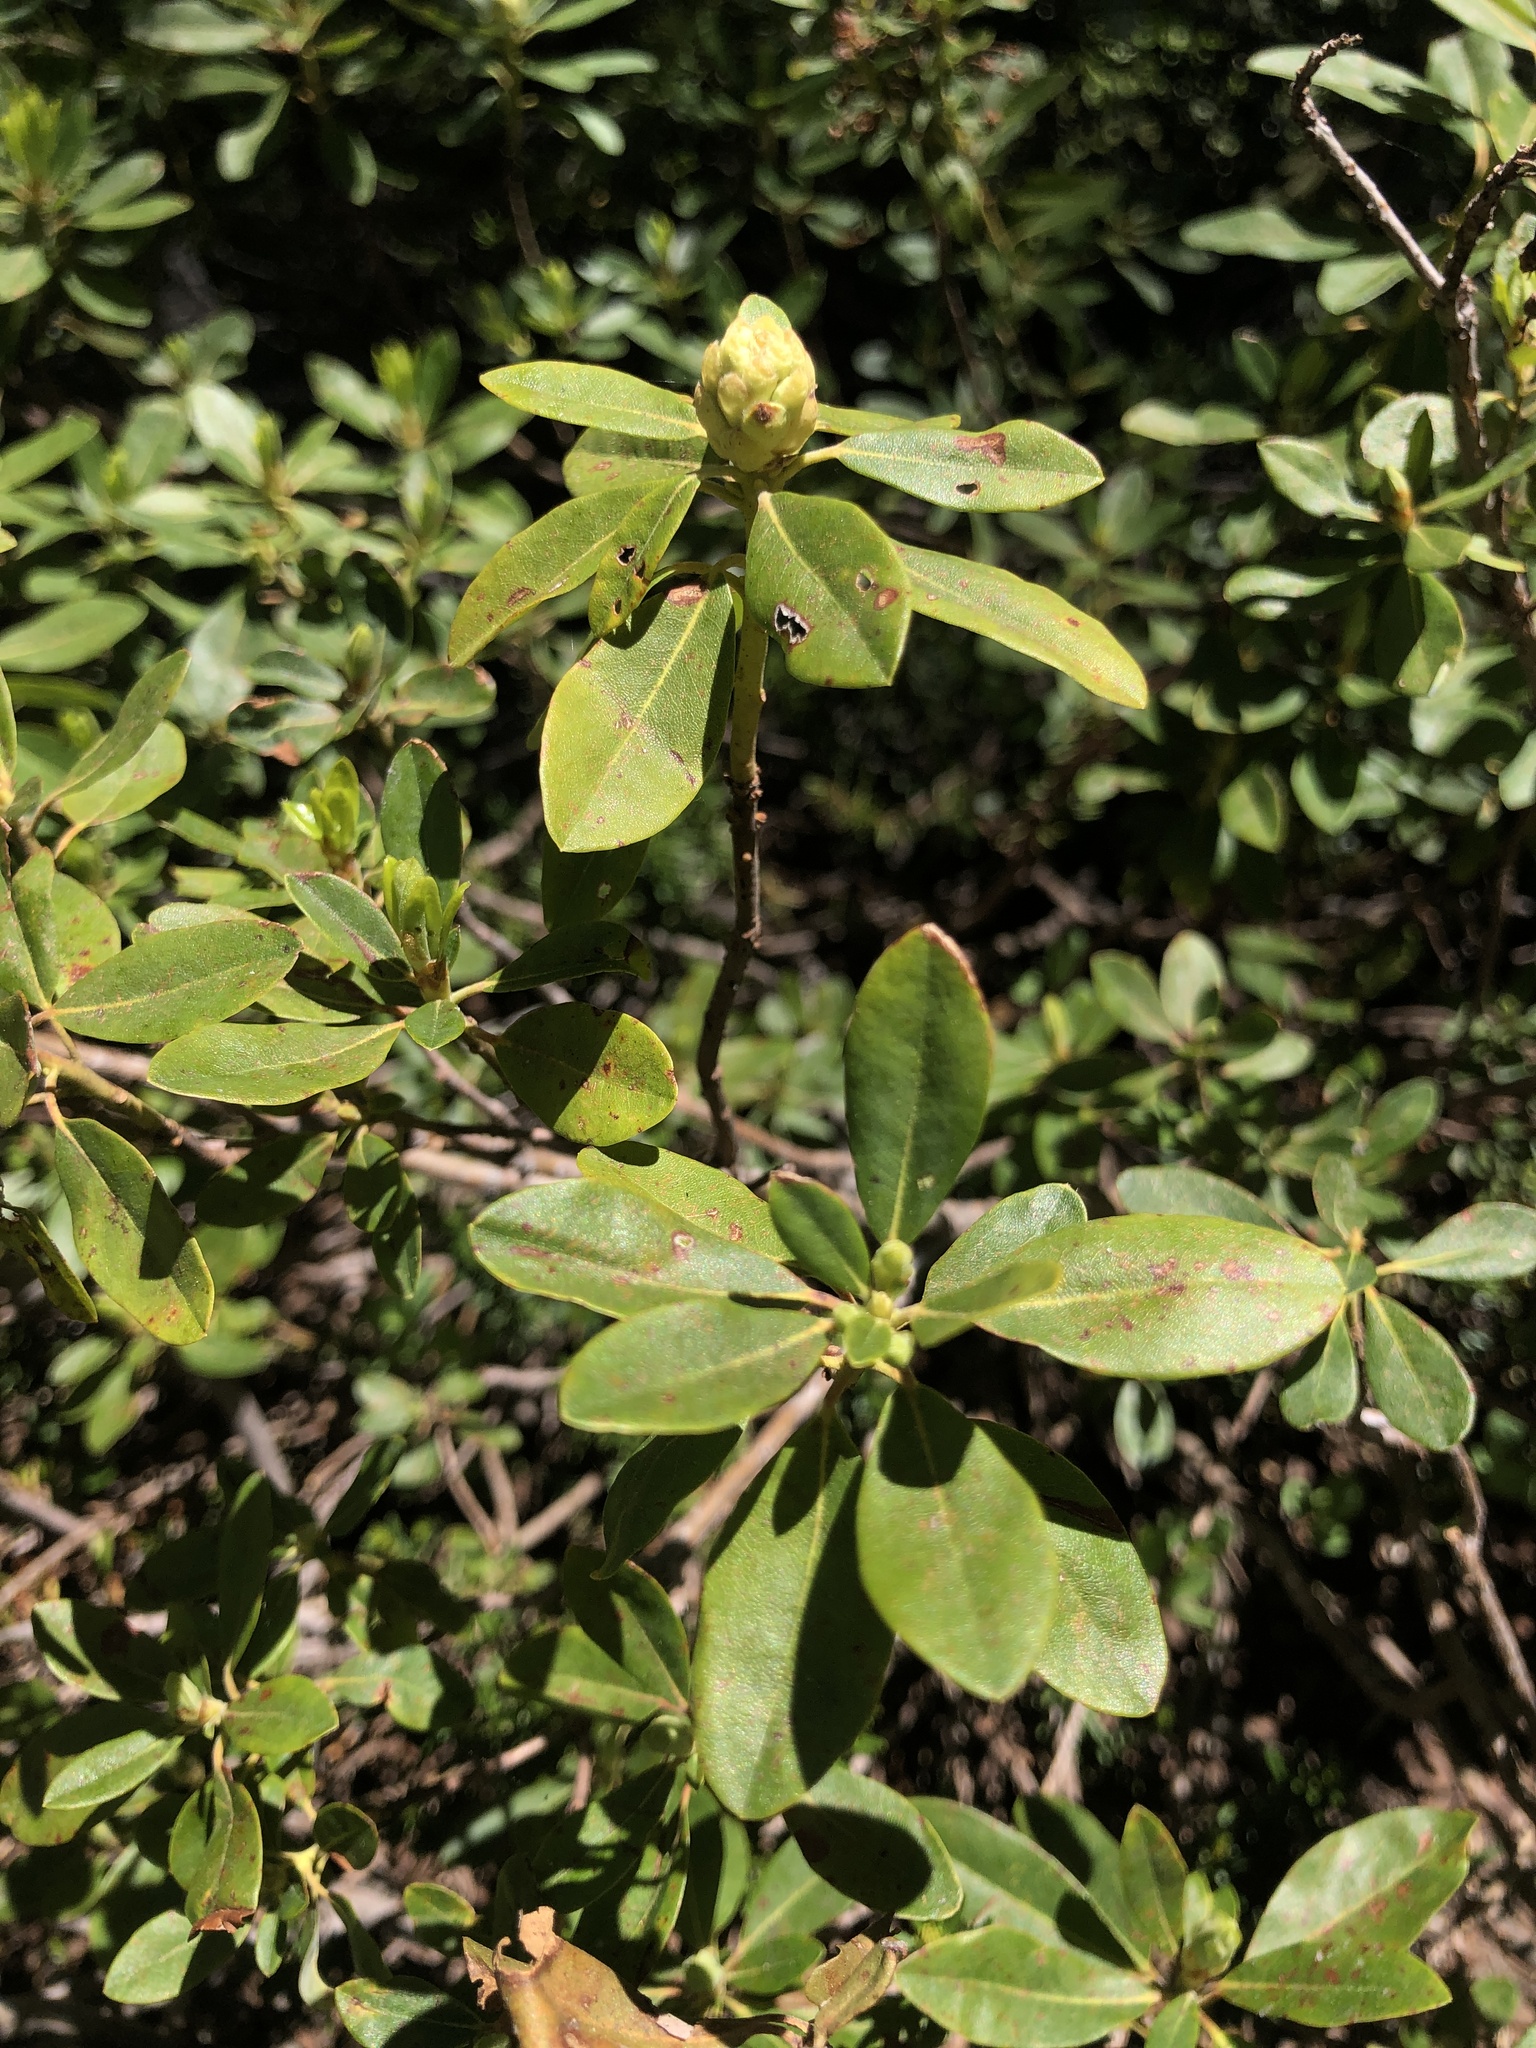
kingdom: Plantae
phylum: Tracheophyta
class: Magnoliopsida
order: Ericales
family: Ericaceae
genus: Rhododendron
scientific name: Rhododendron columbianum
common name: Western labrador tea
